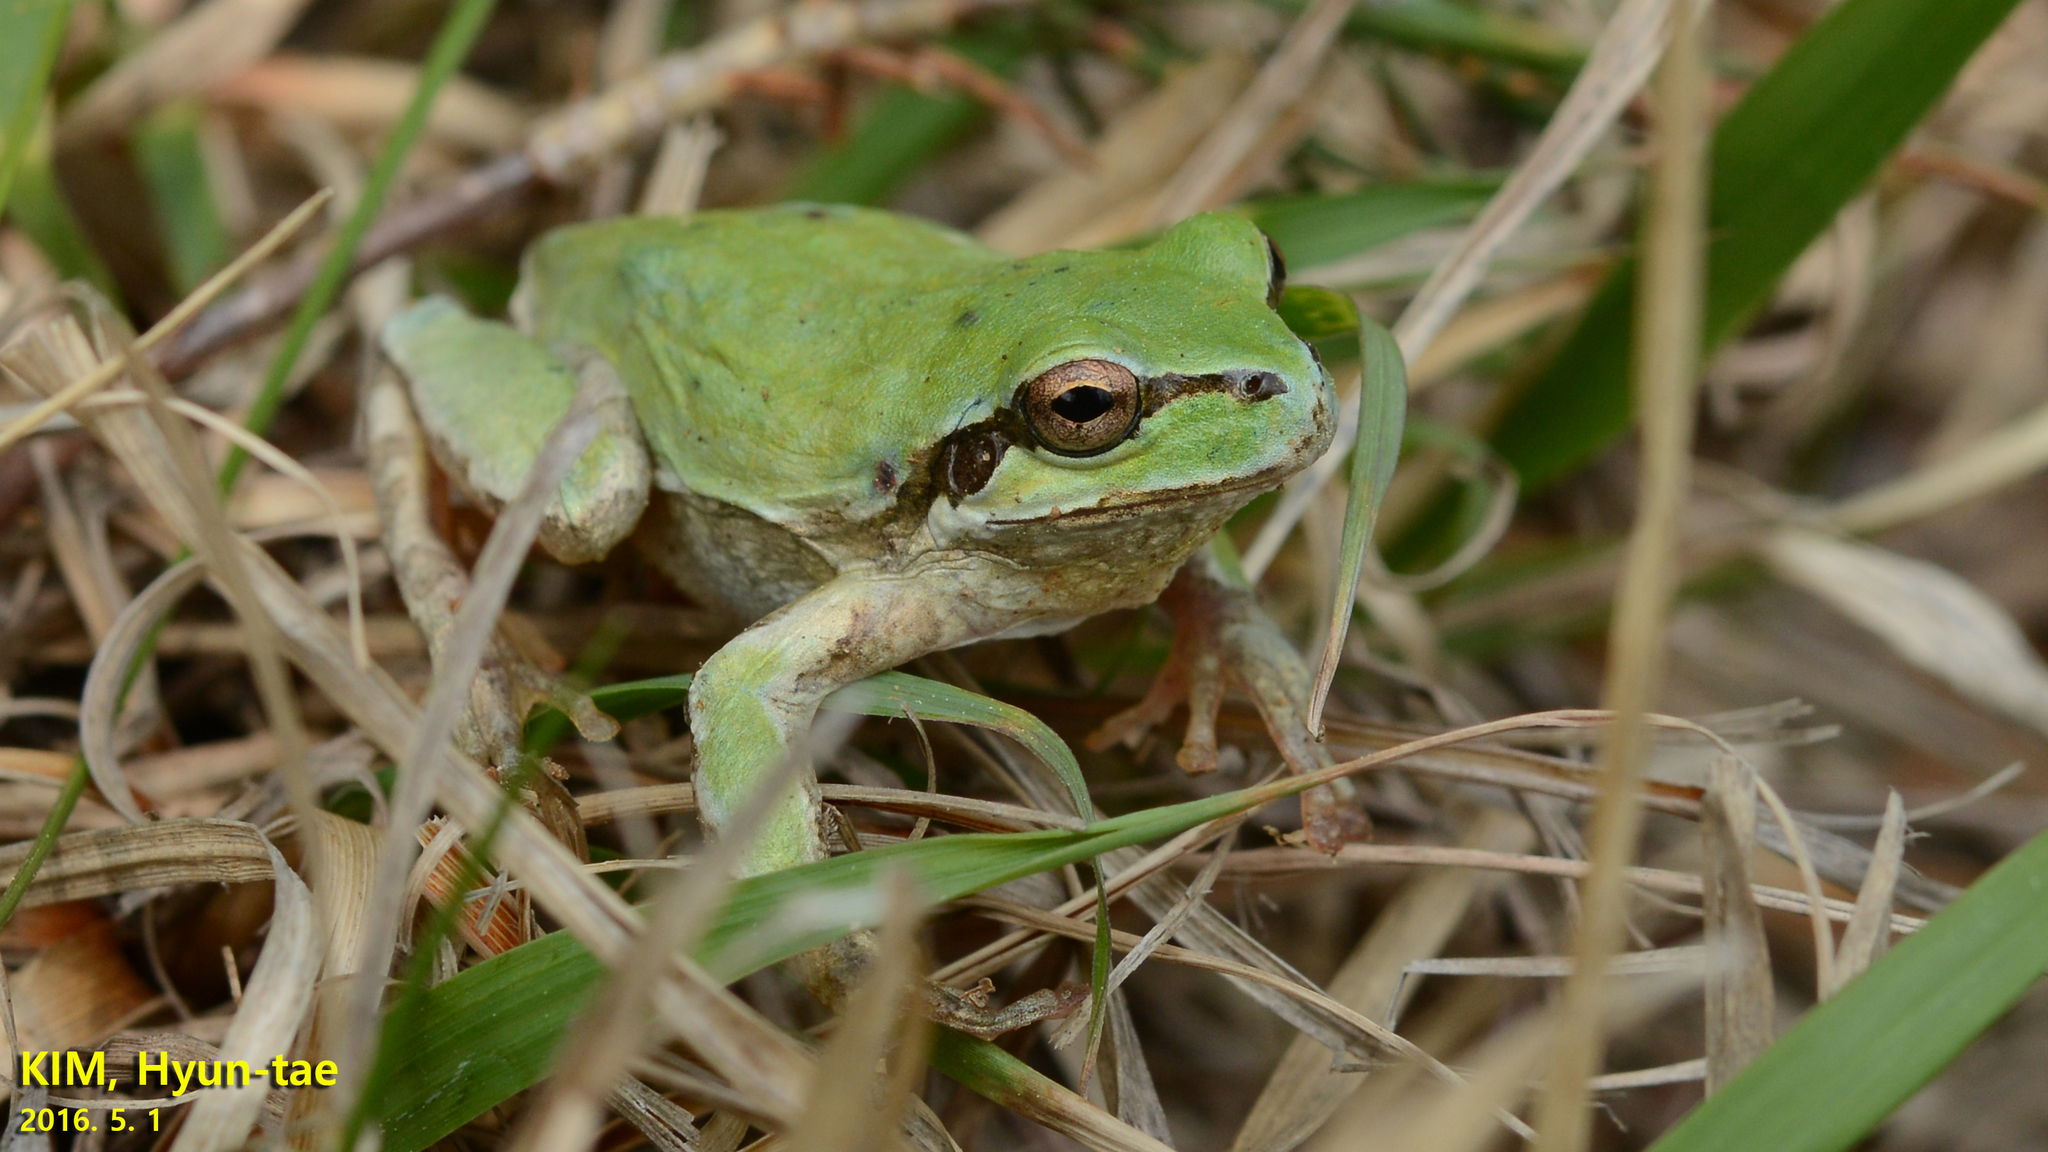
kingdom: Animalia
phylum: Chordata
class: Amphibia
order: Anura
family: Hylidae
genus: Dryophytes
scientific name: Dryophytes japonicus
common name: Japanese treefrog
